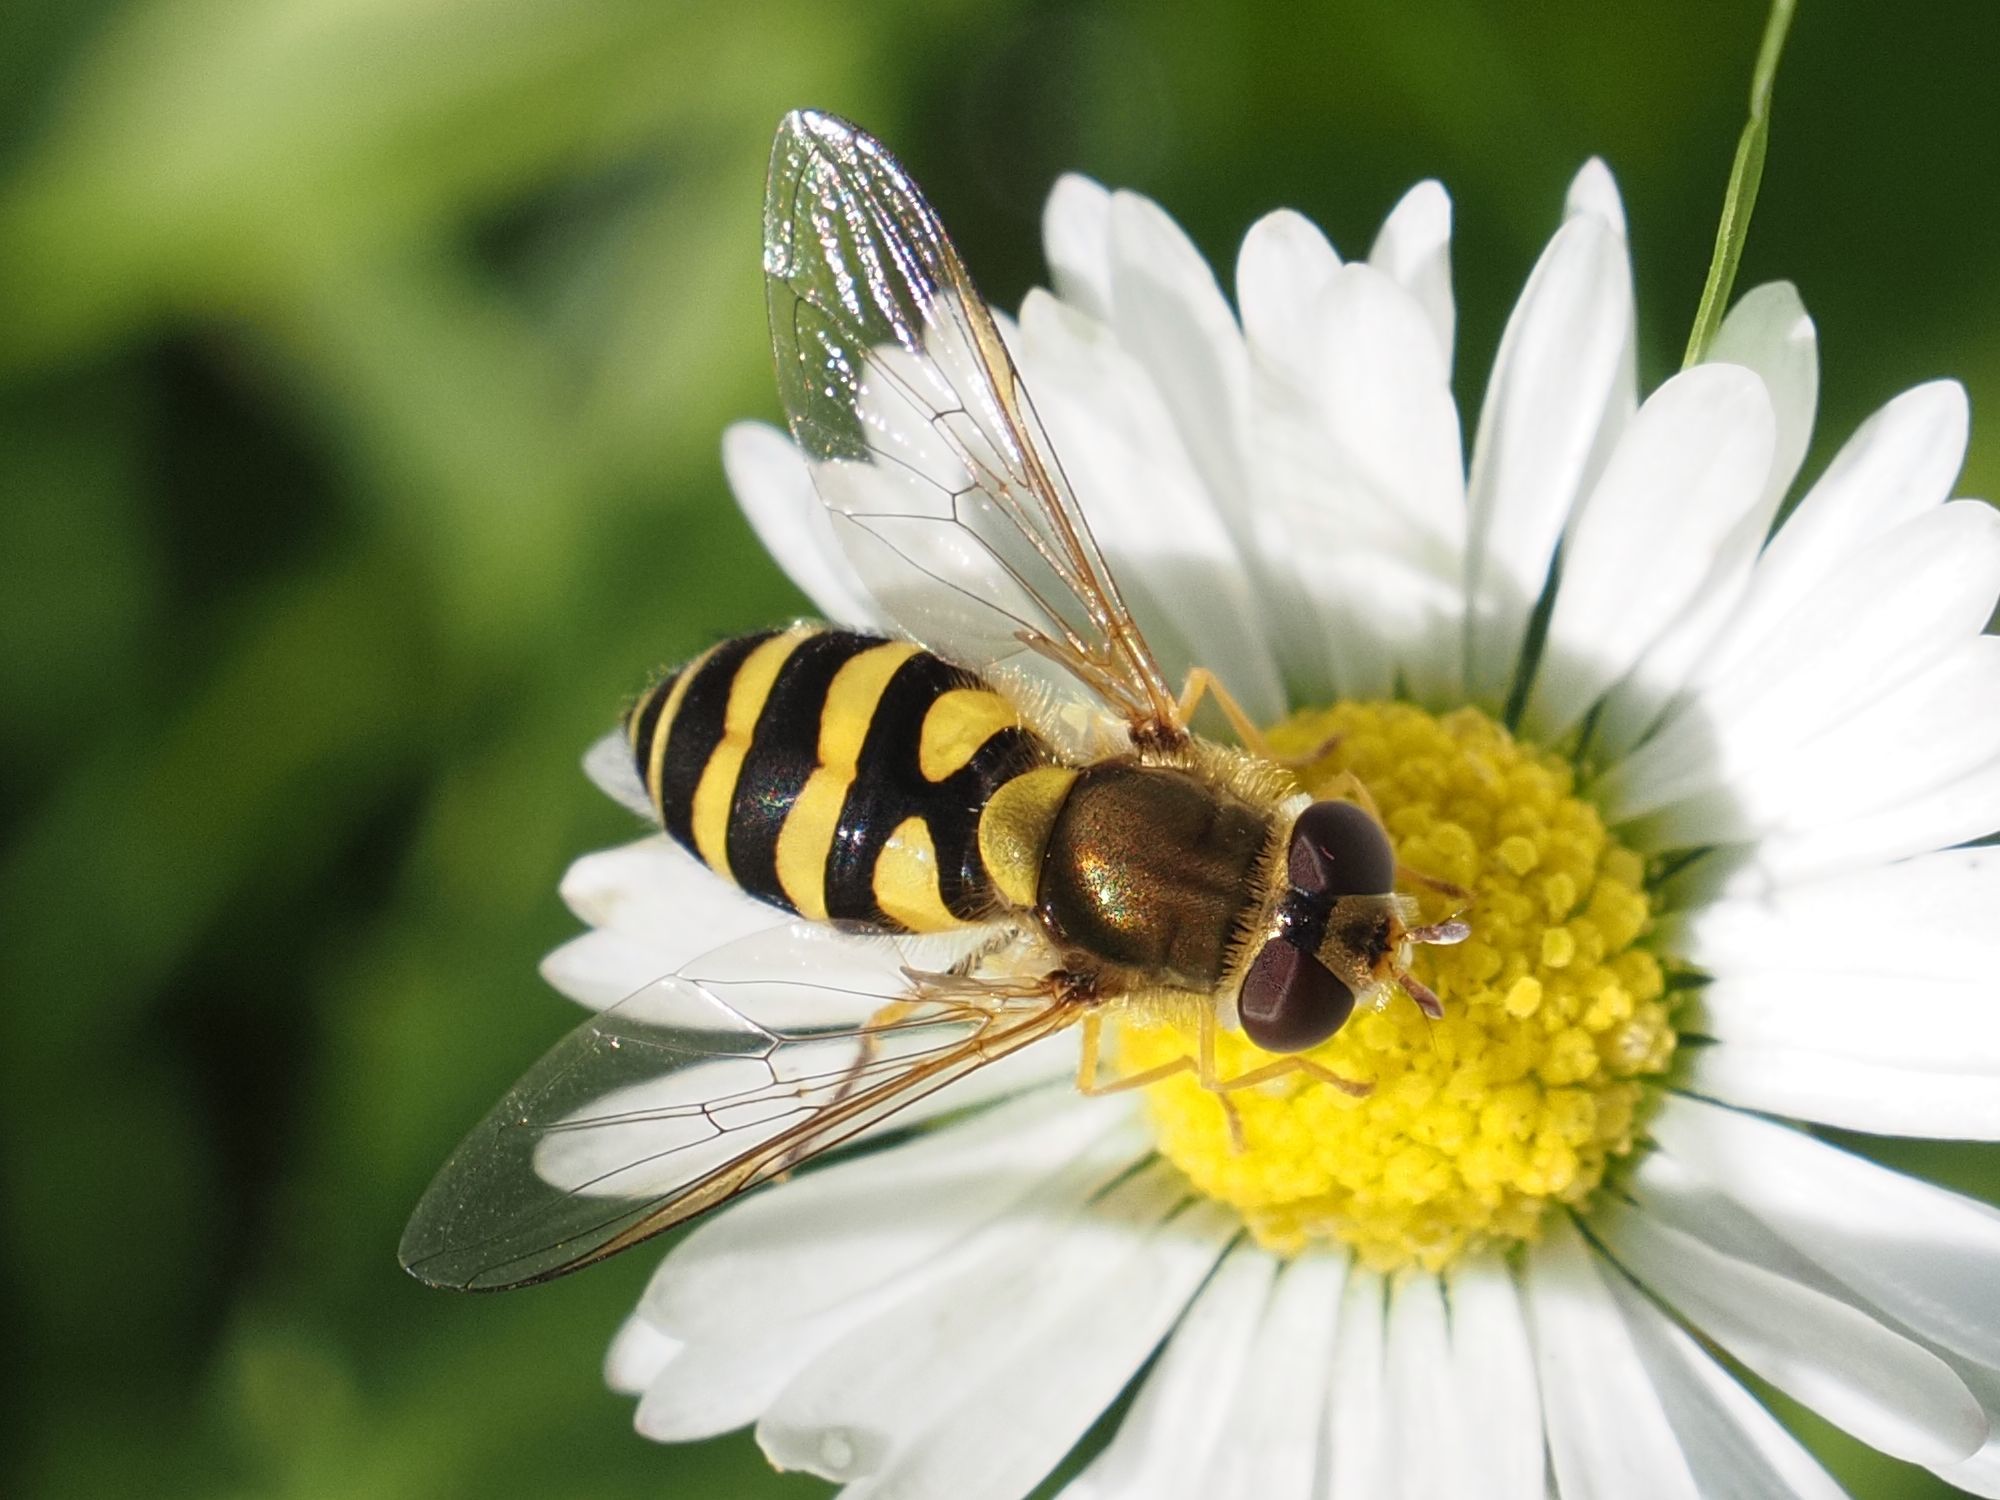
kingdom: Animalia
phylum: Arthropoda
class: Insecta
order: Diptera
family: Syrphidae
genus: Syrphus
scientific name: Syrphus vitripennis
